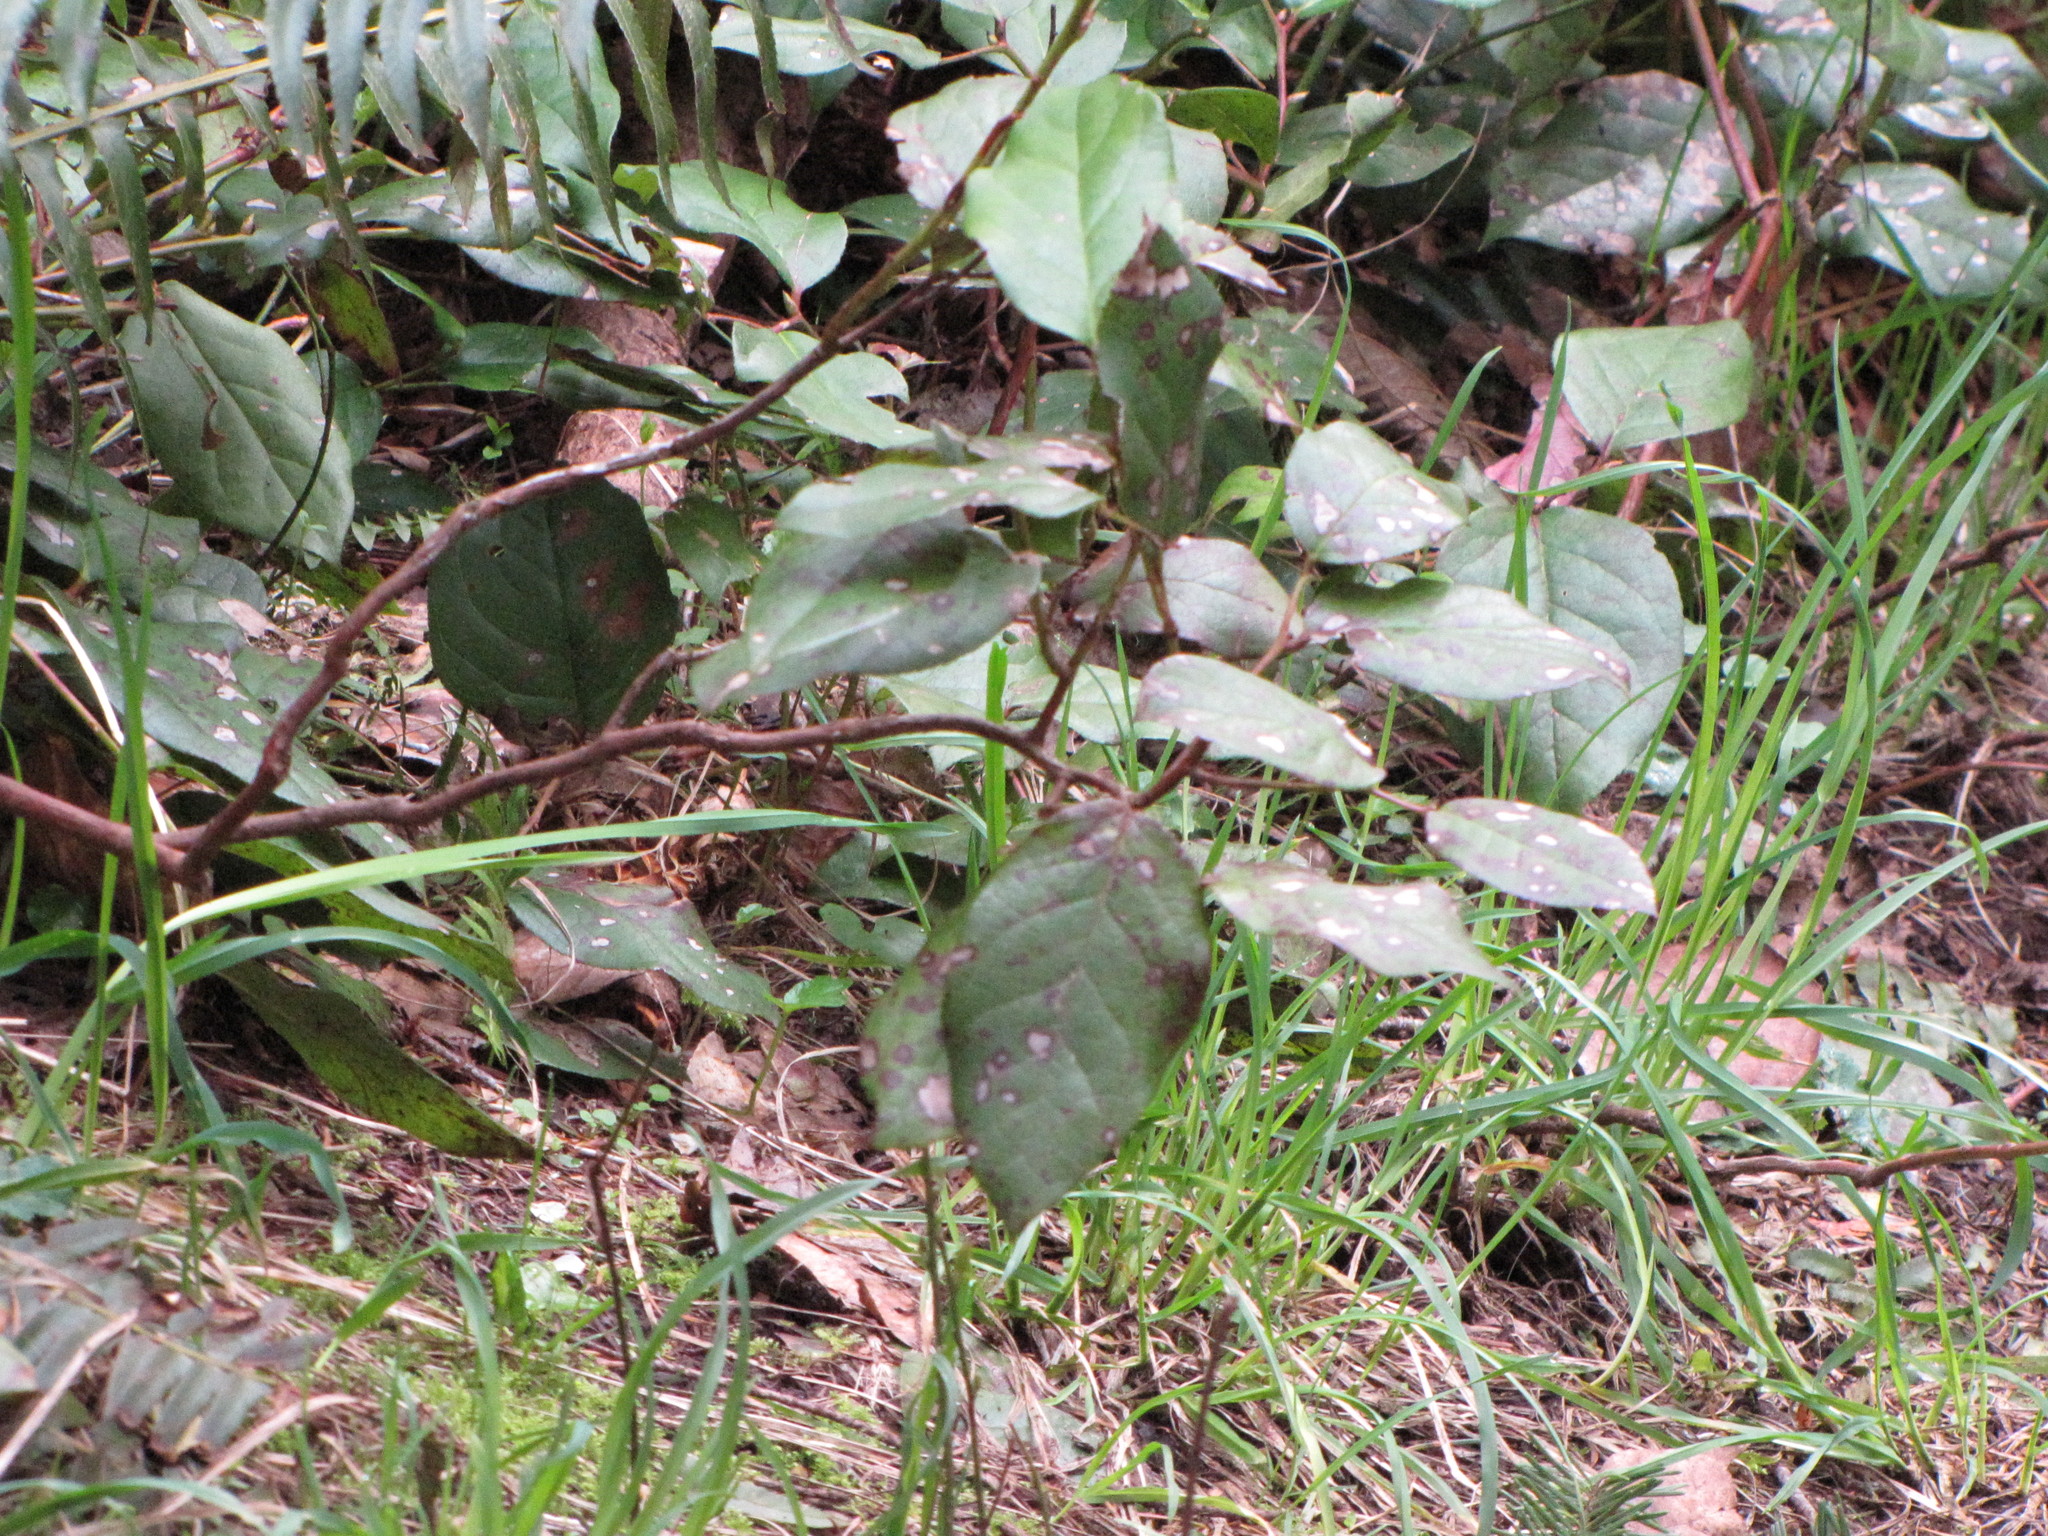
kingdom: Plantae
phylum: Tracheophyta
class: Magnoliopsida
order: Ericales
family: Ericaceae
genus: Gaultheria
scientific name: Gaultheria shallon
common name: Shallon
